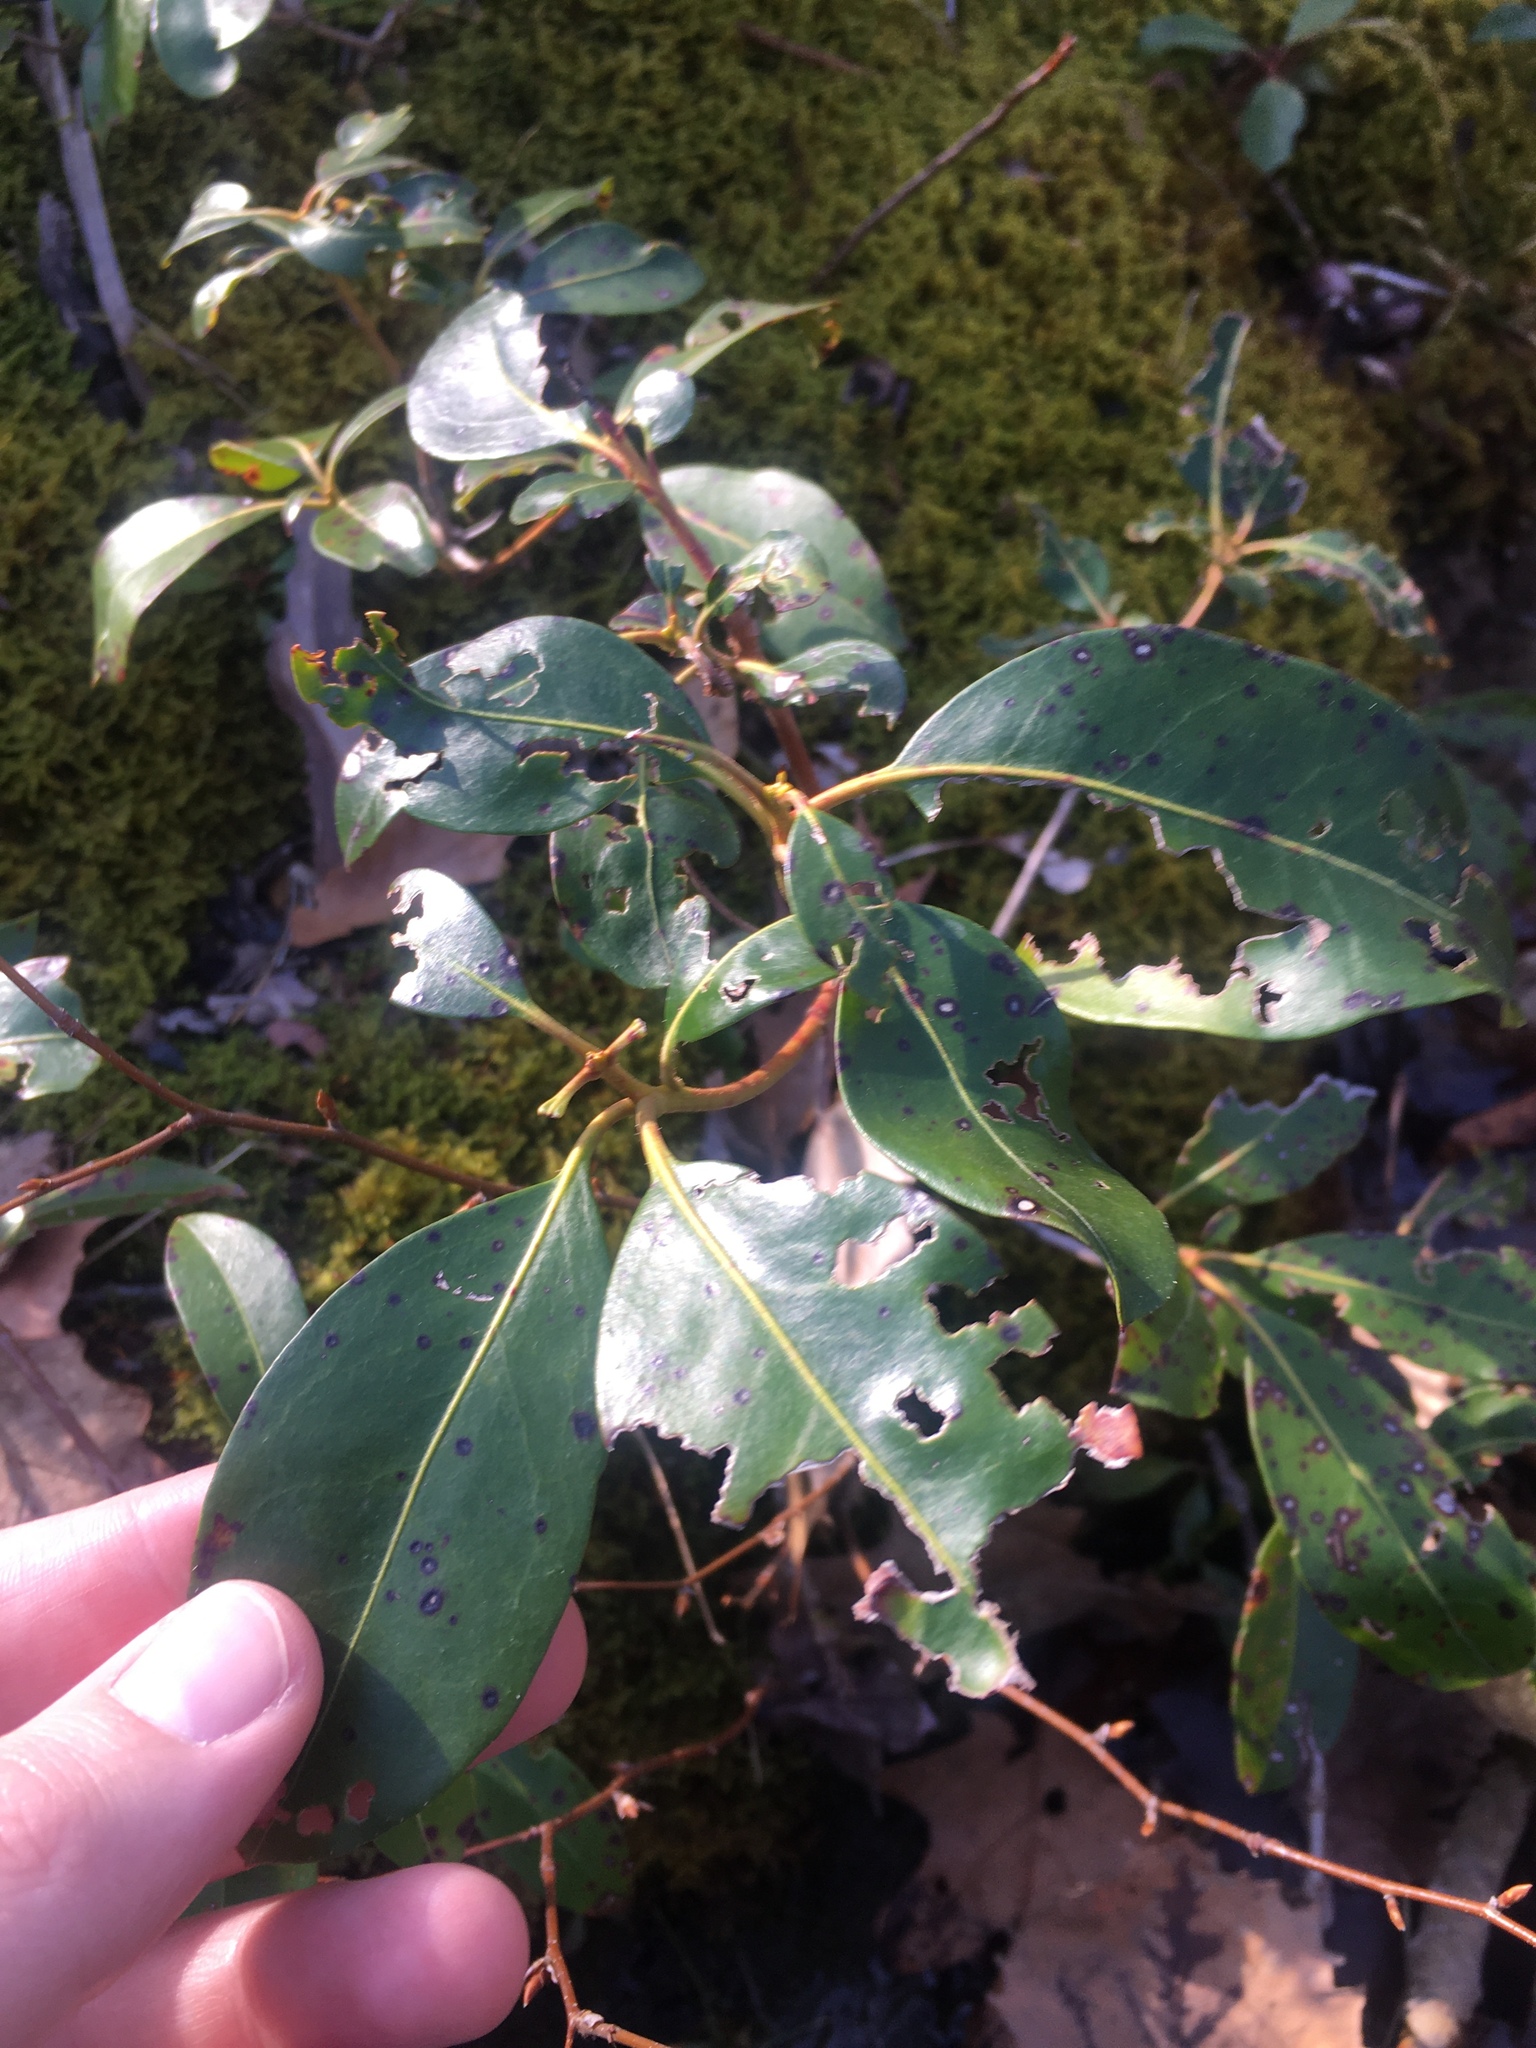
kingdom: Plantae
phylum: Tracheophyta
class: Magnoliopsida
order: Ericales
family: Ericaceae
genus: Kalmia
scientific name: Kalmia latifolia
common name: Mountain-laurel
